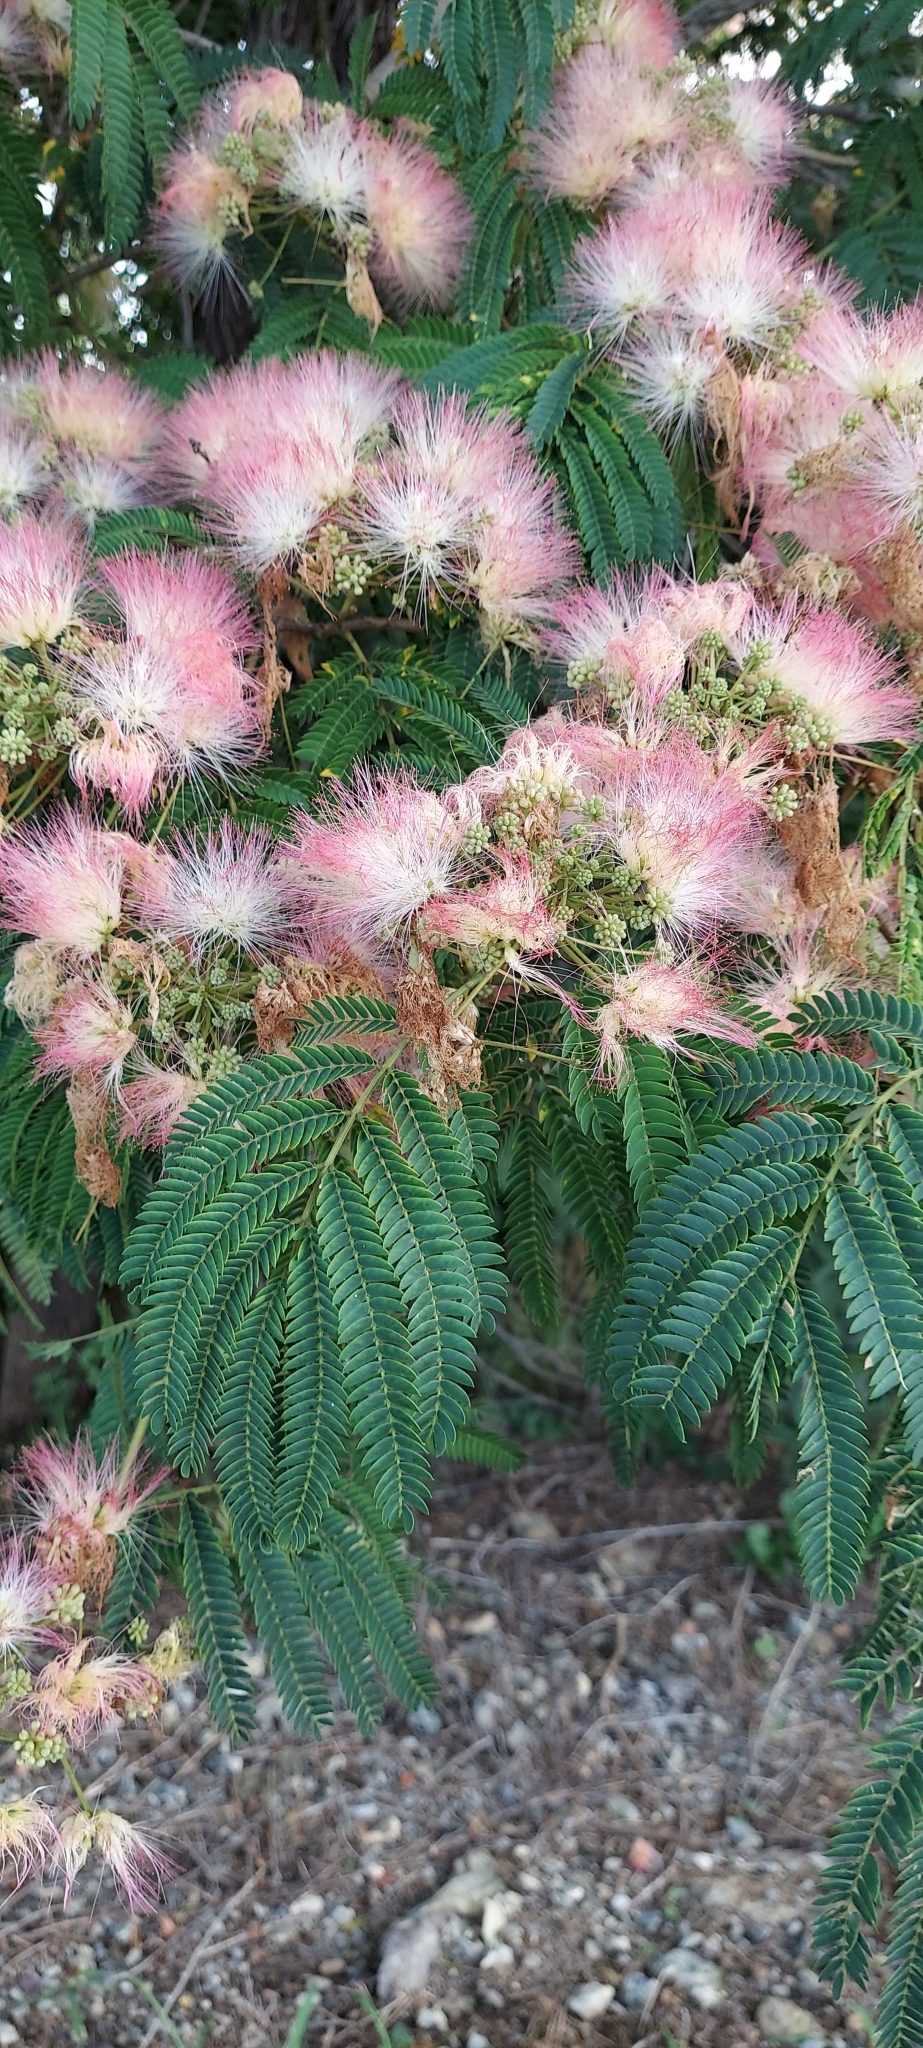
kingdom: Plantae
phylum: Tracheophyta
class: Magnoliopsida
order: Fabales
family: Fabaceae
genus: Albizia
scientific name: Albizia julibrissin
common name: Silktree
